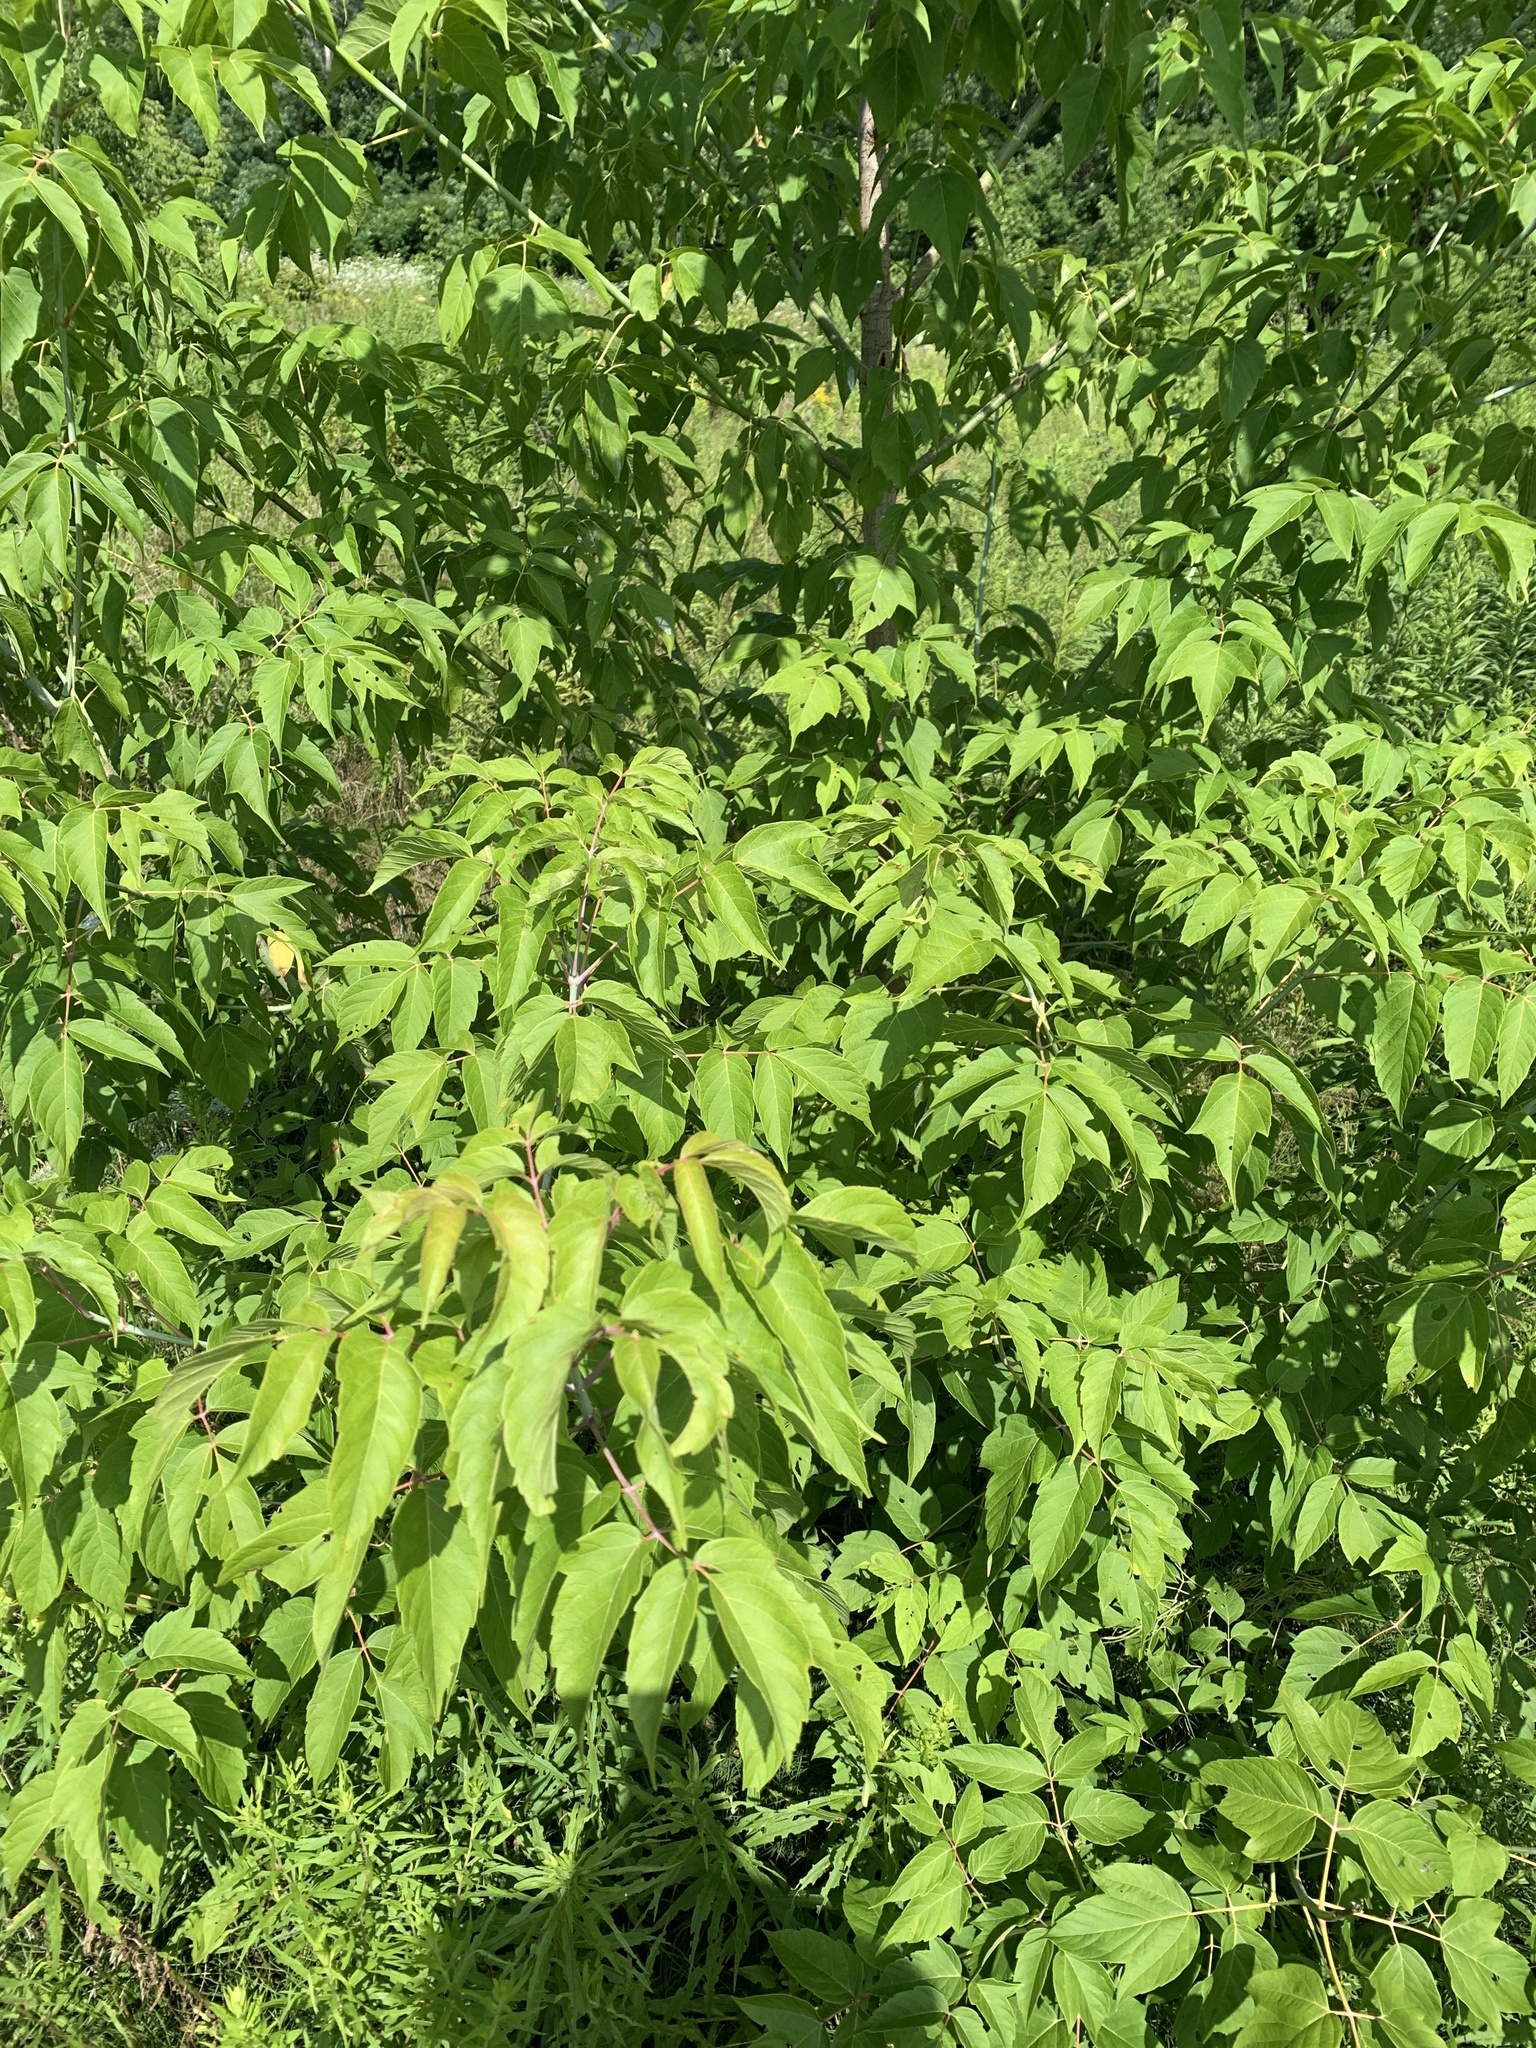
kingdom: Plantae
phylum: Tracheophyta
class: Magnoliopsida
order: Sapindales
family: Sapindaceae
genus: Acer
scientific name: Acer negundo
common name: Ashleaf maple
